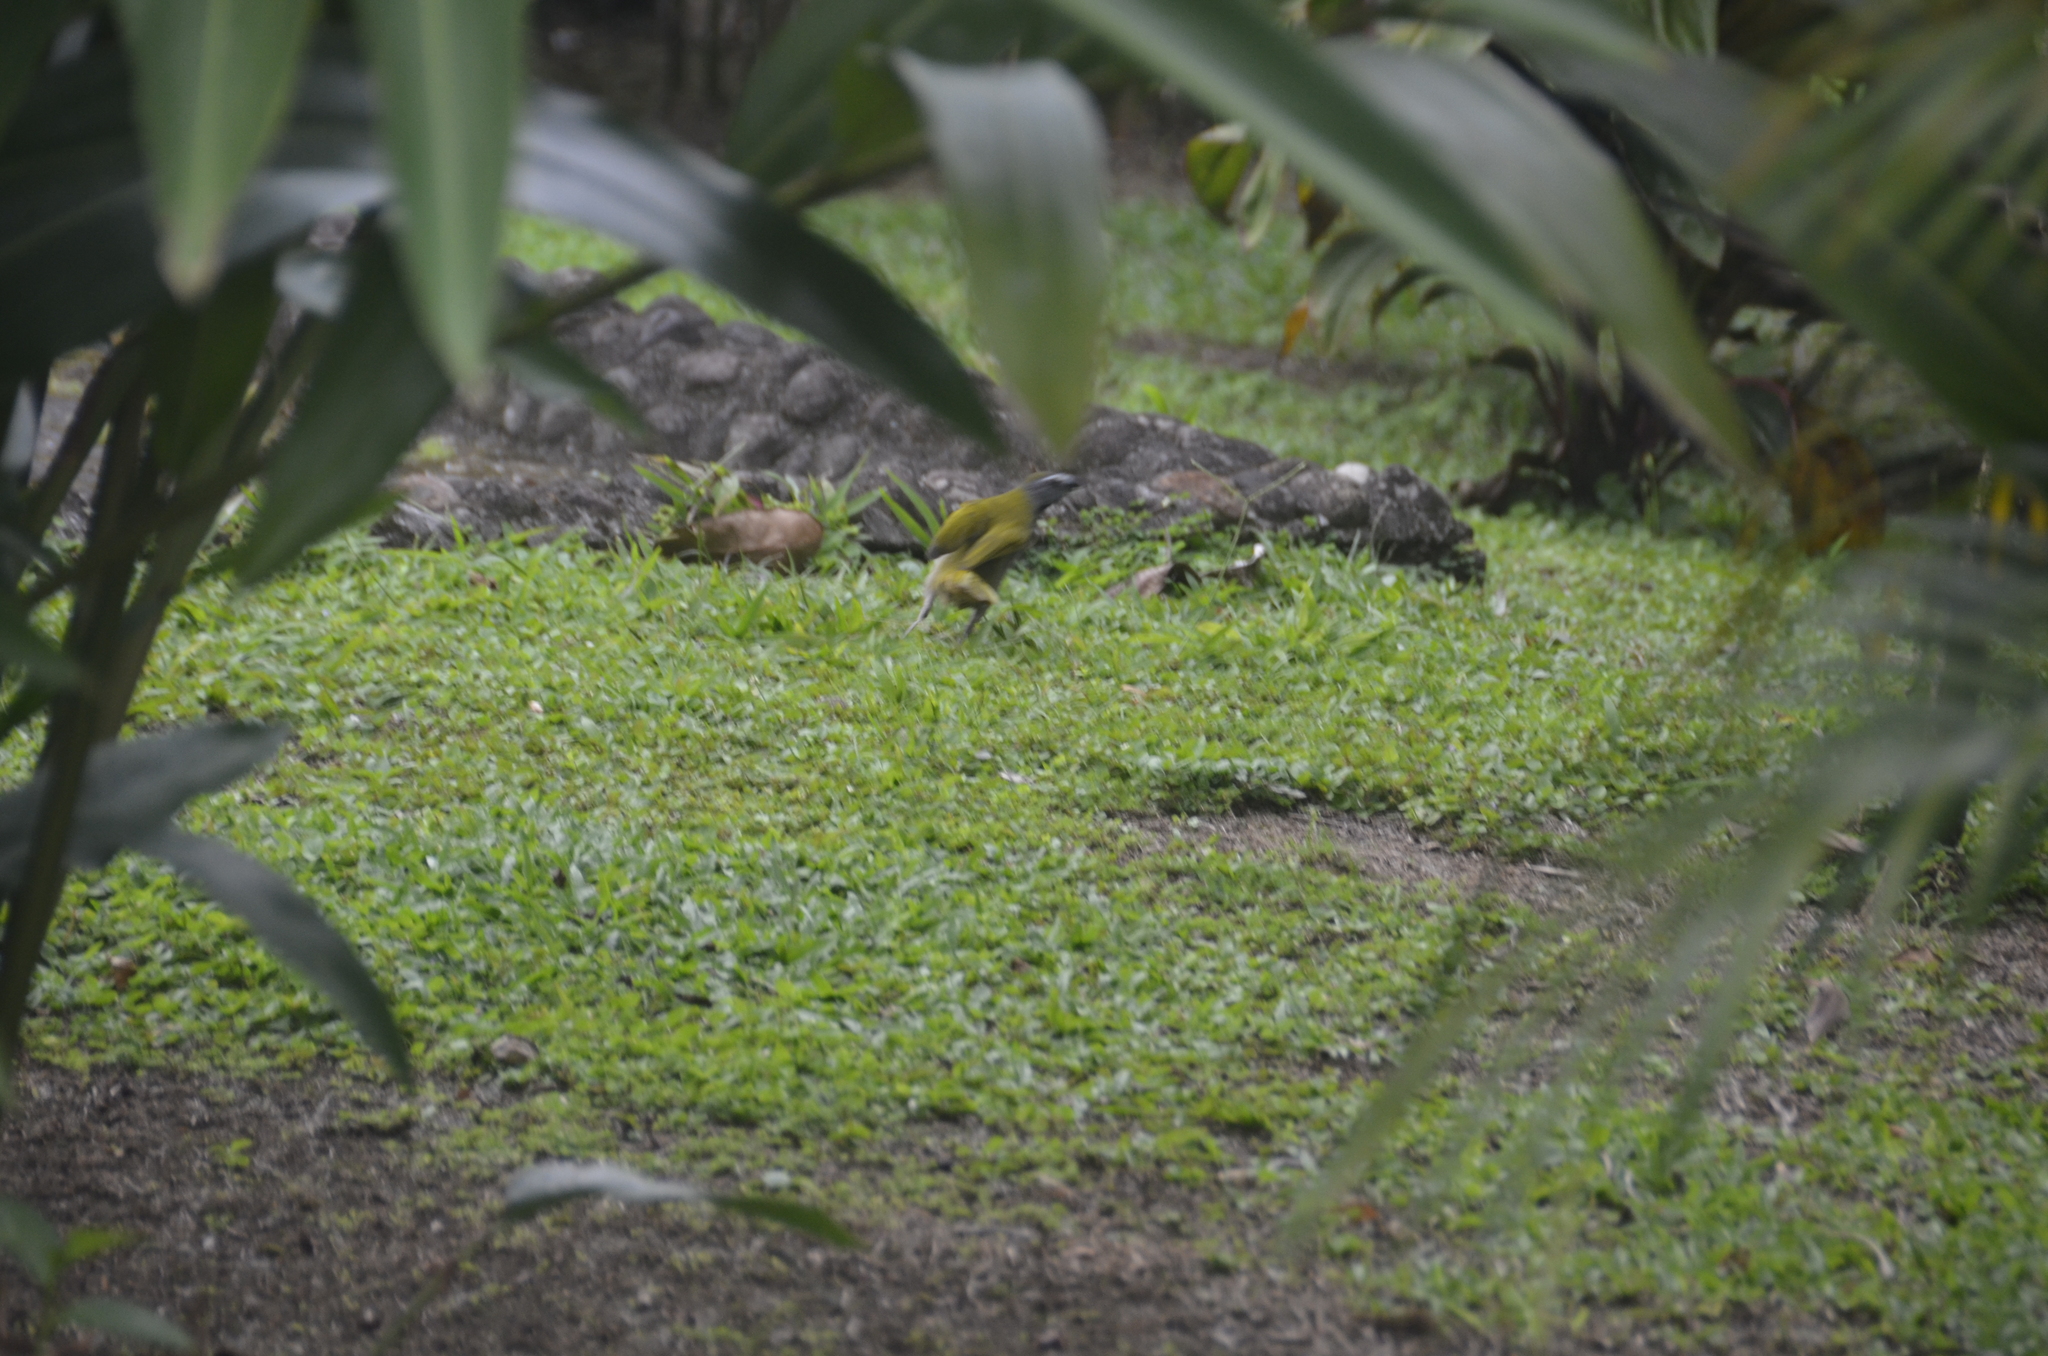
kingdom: Animalia
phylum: Chordata
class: Aves
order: Passeriformes
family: Thraupidae
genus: Saltator
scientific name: Saltator maximus
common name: Buff-throated saltator
